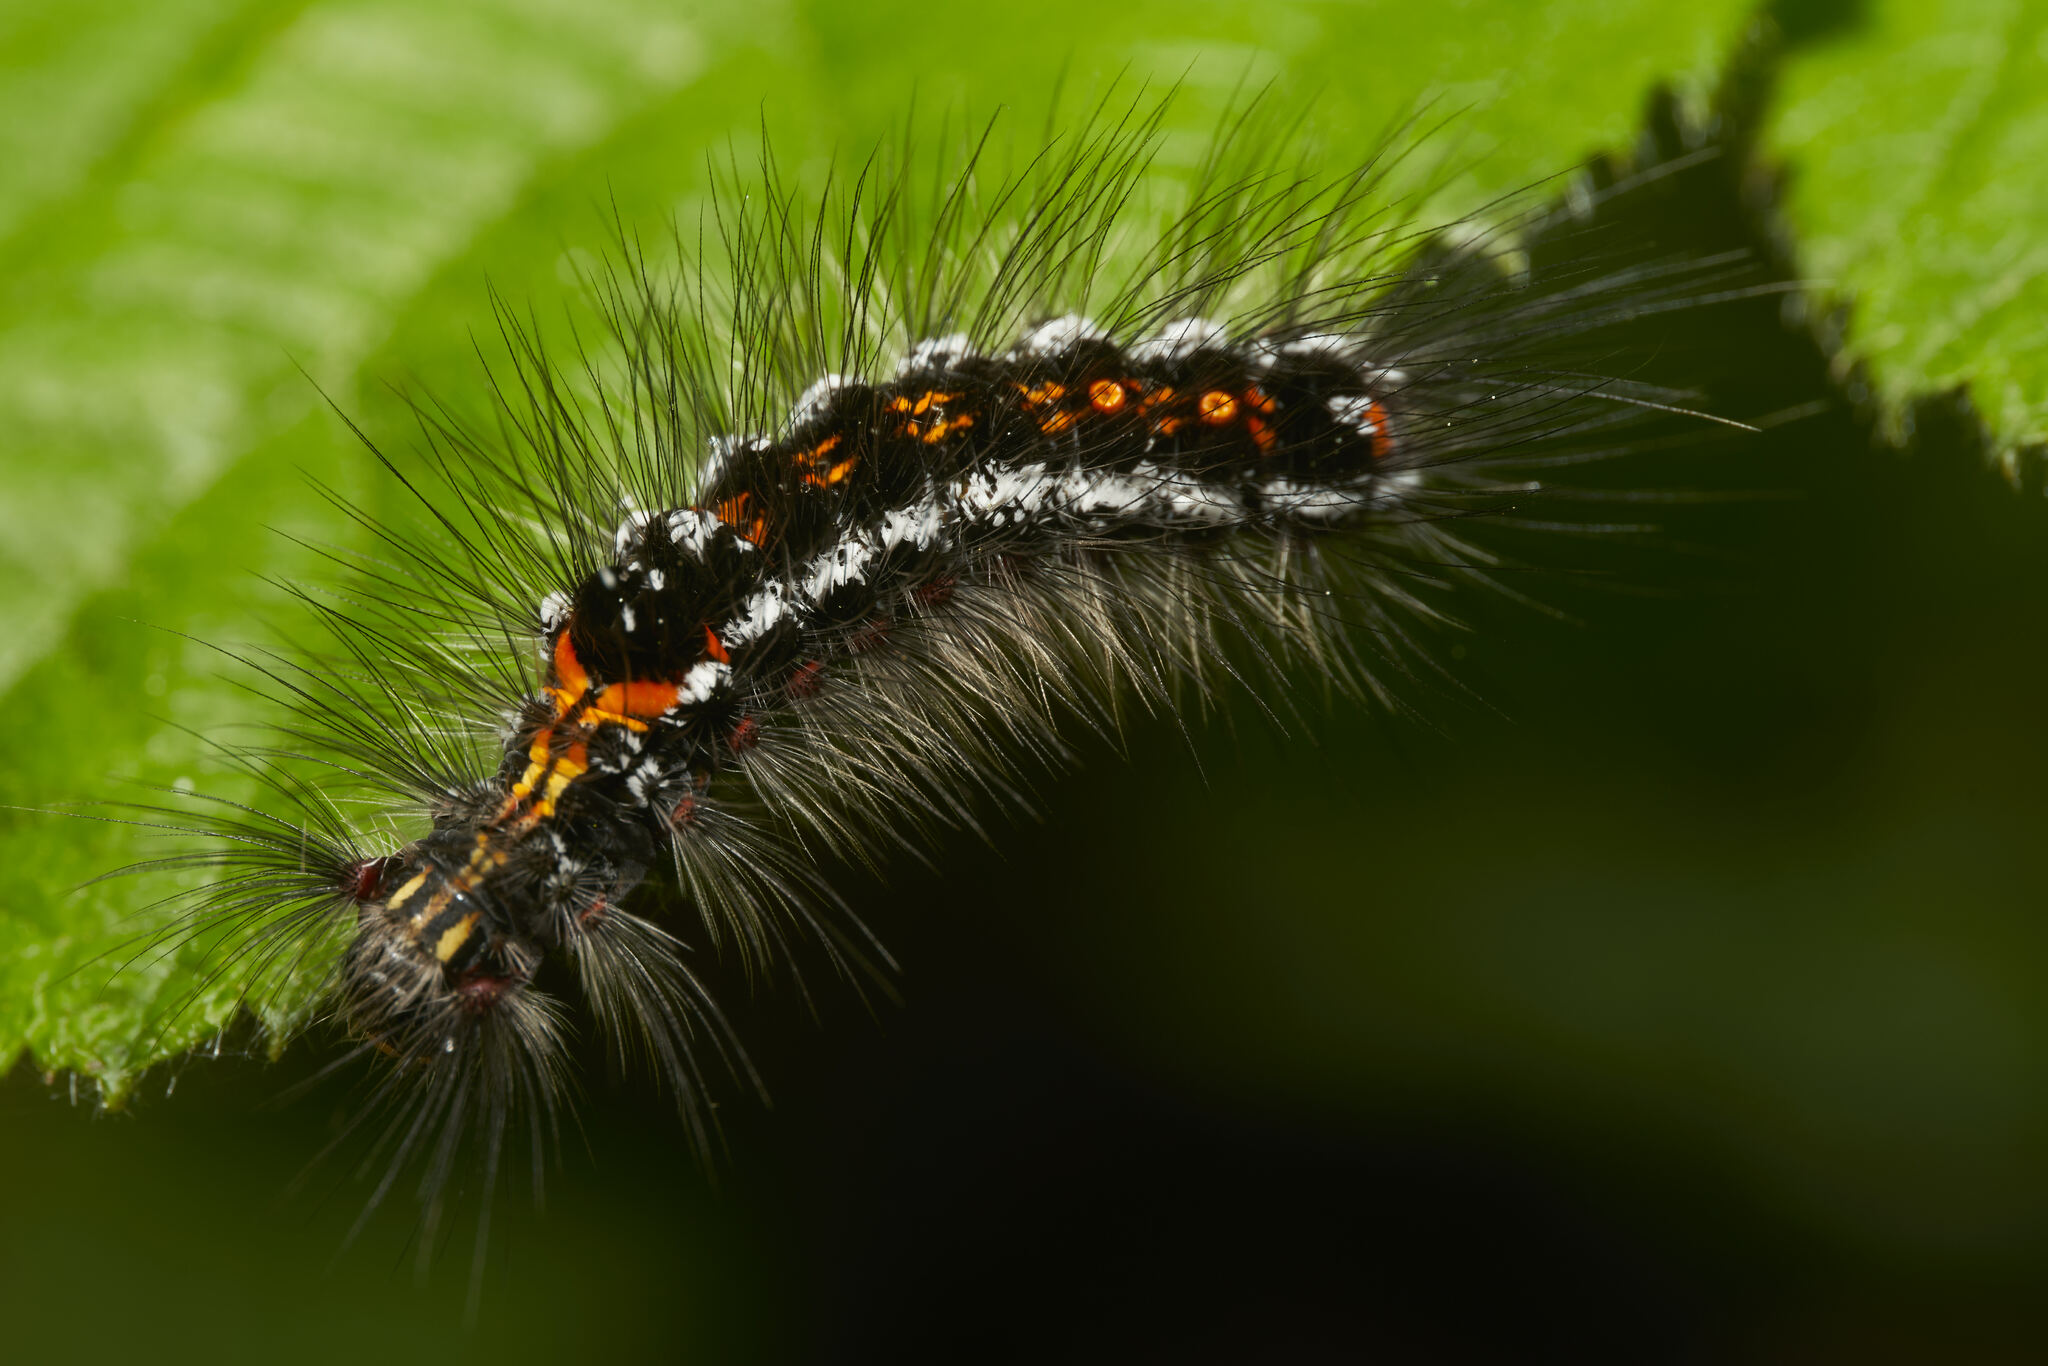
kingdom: Animalia
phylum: Arthropoda
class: Insecta
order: Lepidoptera
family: Erebidae
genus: Sphrageidus
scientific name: Sphrageidus similis
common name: Yellow-tail
